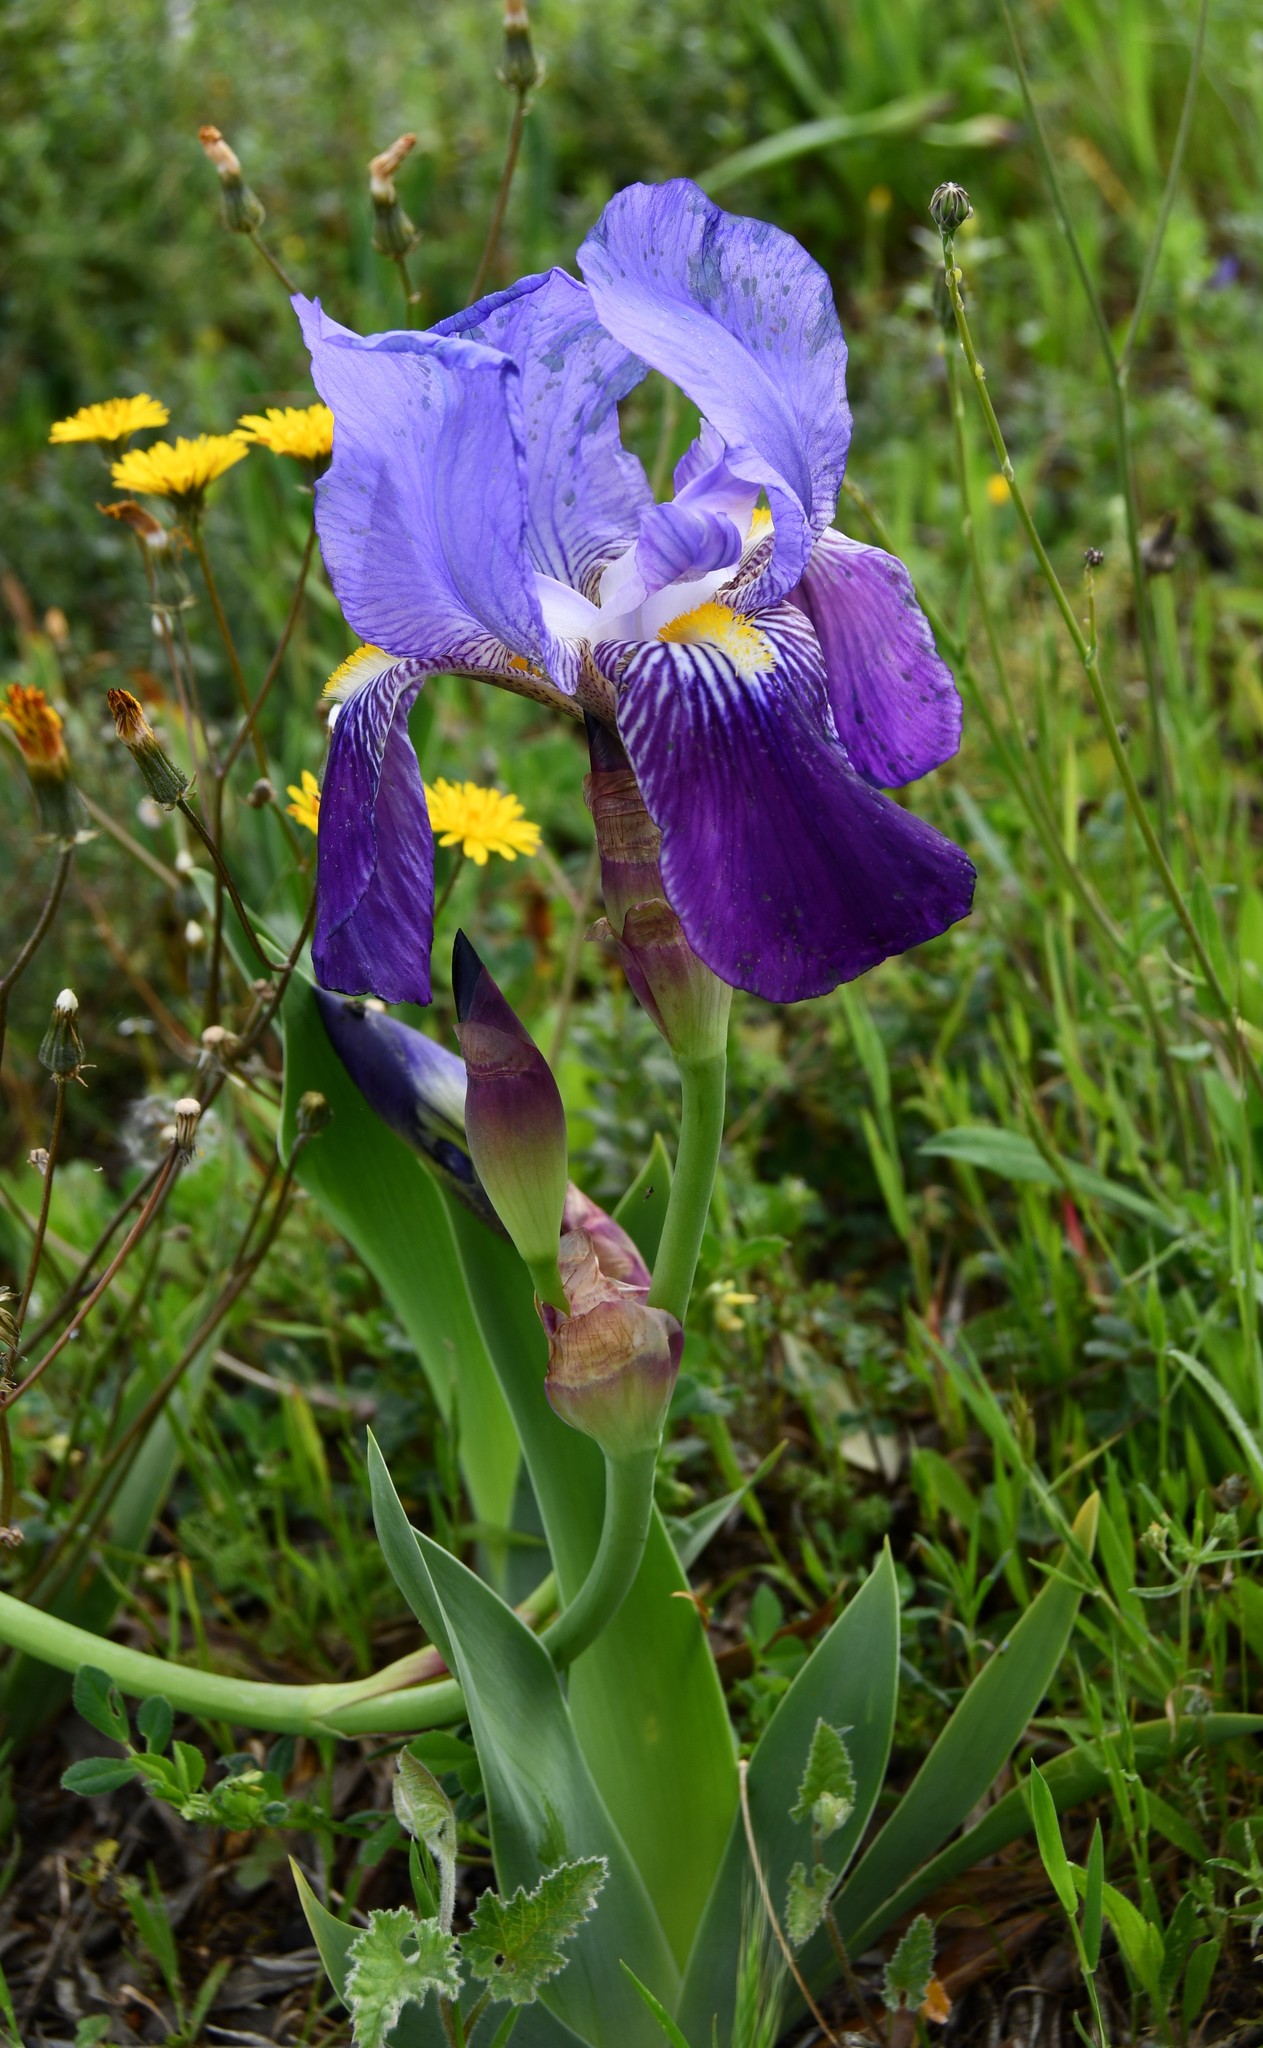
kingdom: Plantae
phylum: Tracheophyta
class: Liliopsida
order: Asparagales
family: Iridaceae
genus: Iris
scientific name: Iris germanica
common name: German iris
